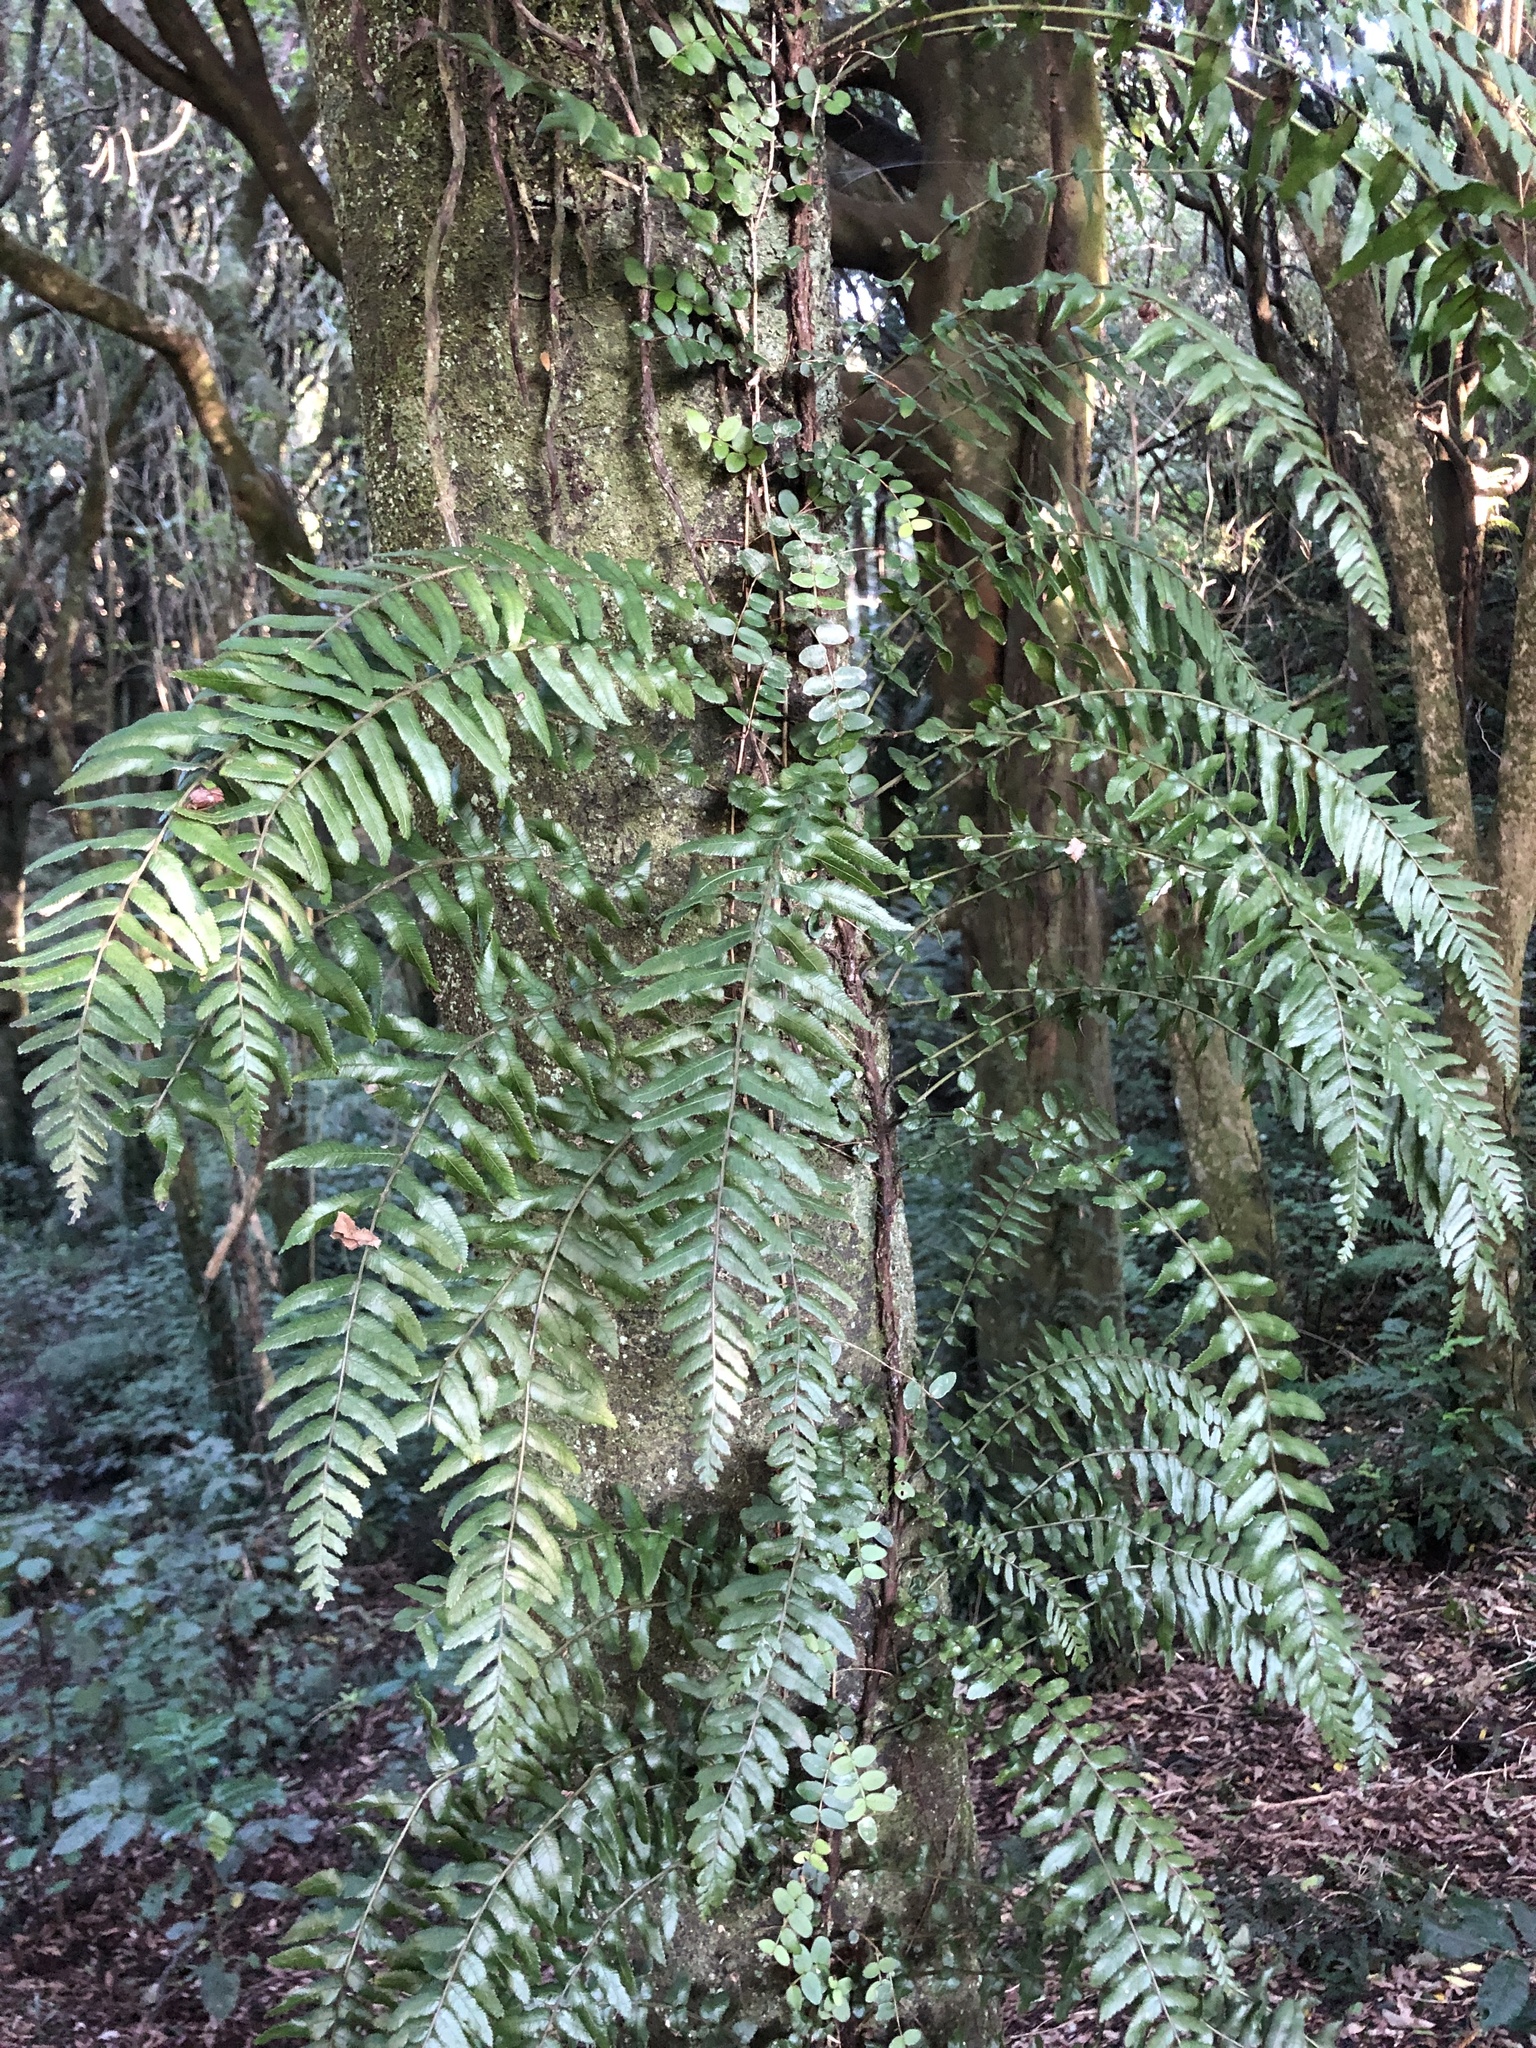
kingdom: Plantae
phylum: Tracheophyta
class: Polypodiopsida
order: Polypodiales
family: Blechnaceae
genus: Icarus
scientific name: Icarus filiformis
